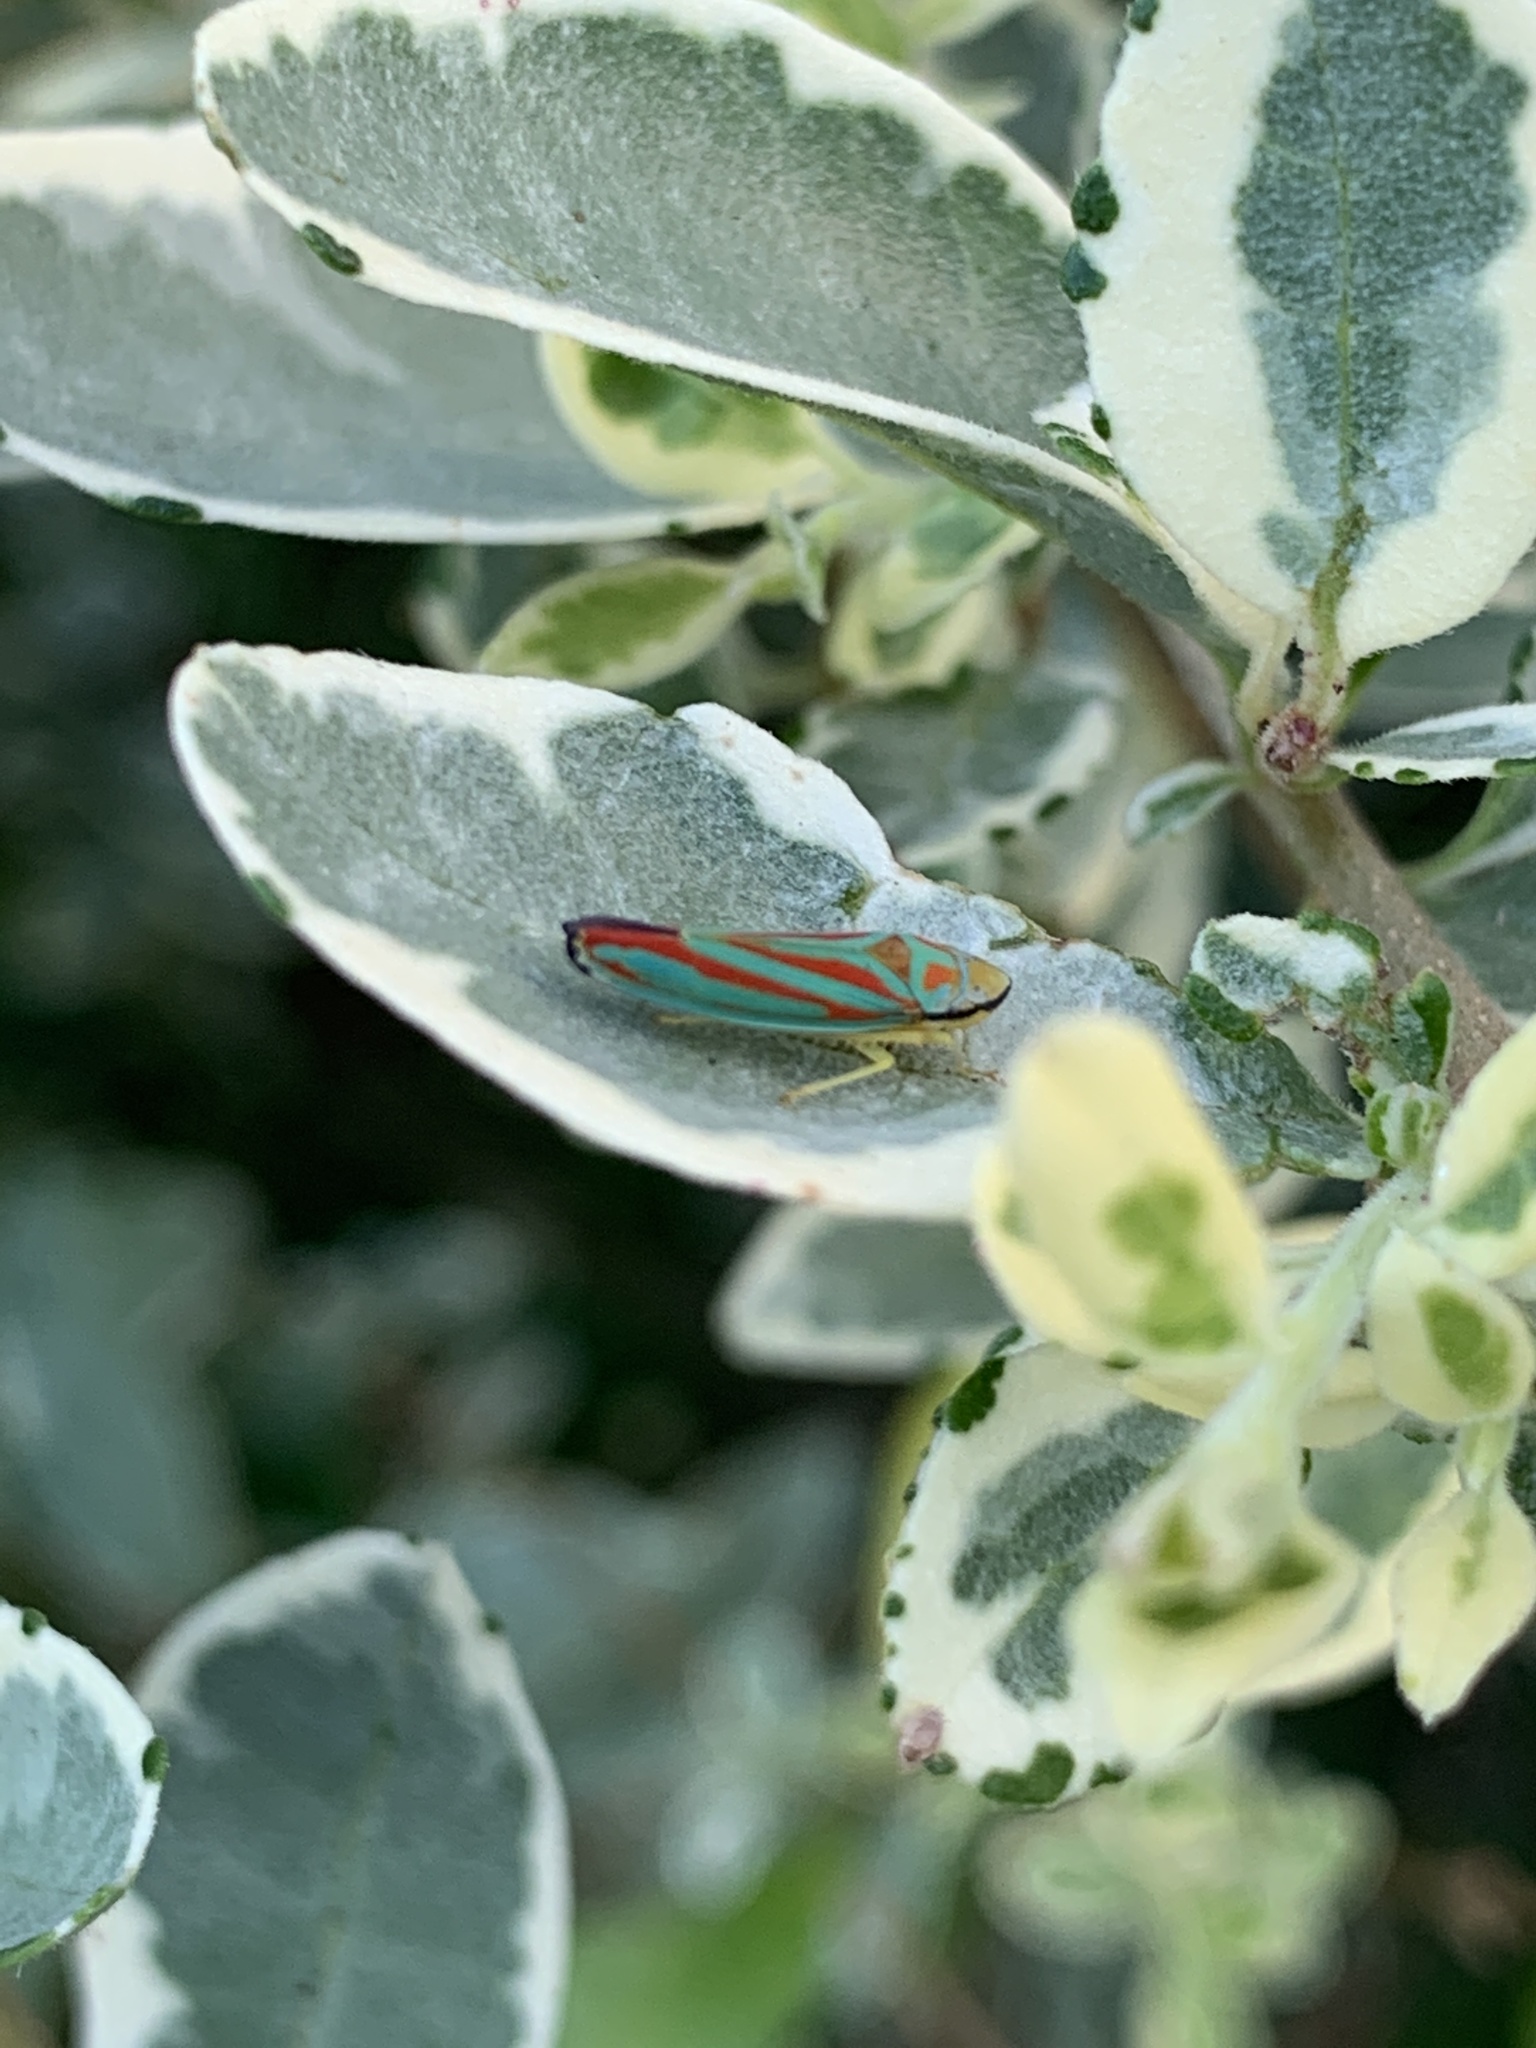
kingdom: Animalia
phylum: Arthropoda
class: Insecta
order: Hemiptera
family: Cicadellidae
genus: Graphocephala
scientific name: Graphocephala coccinea
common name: Candy-striped leafhopper
